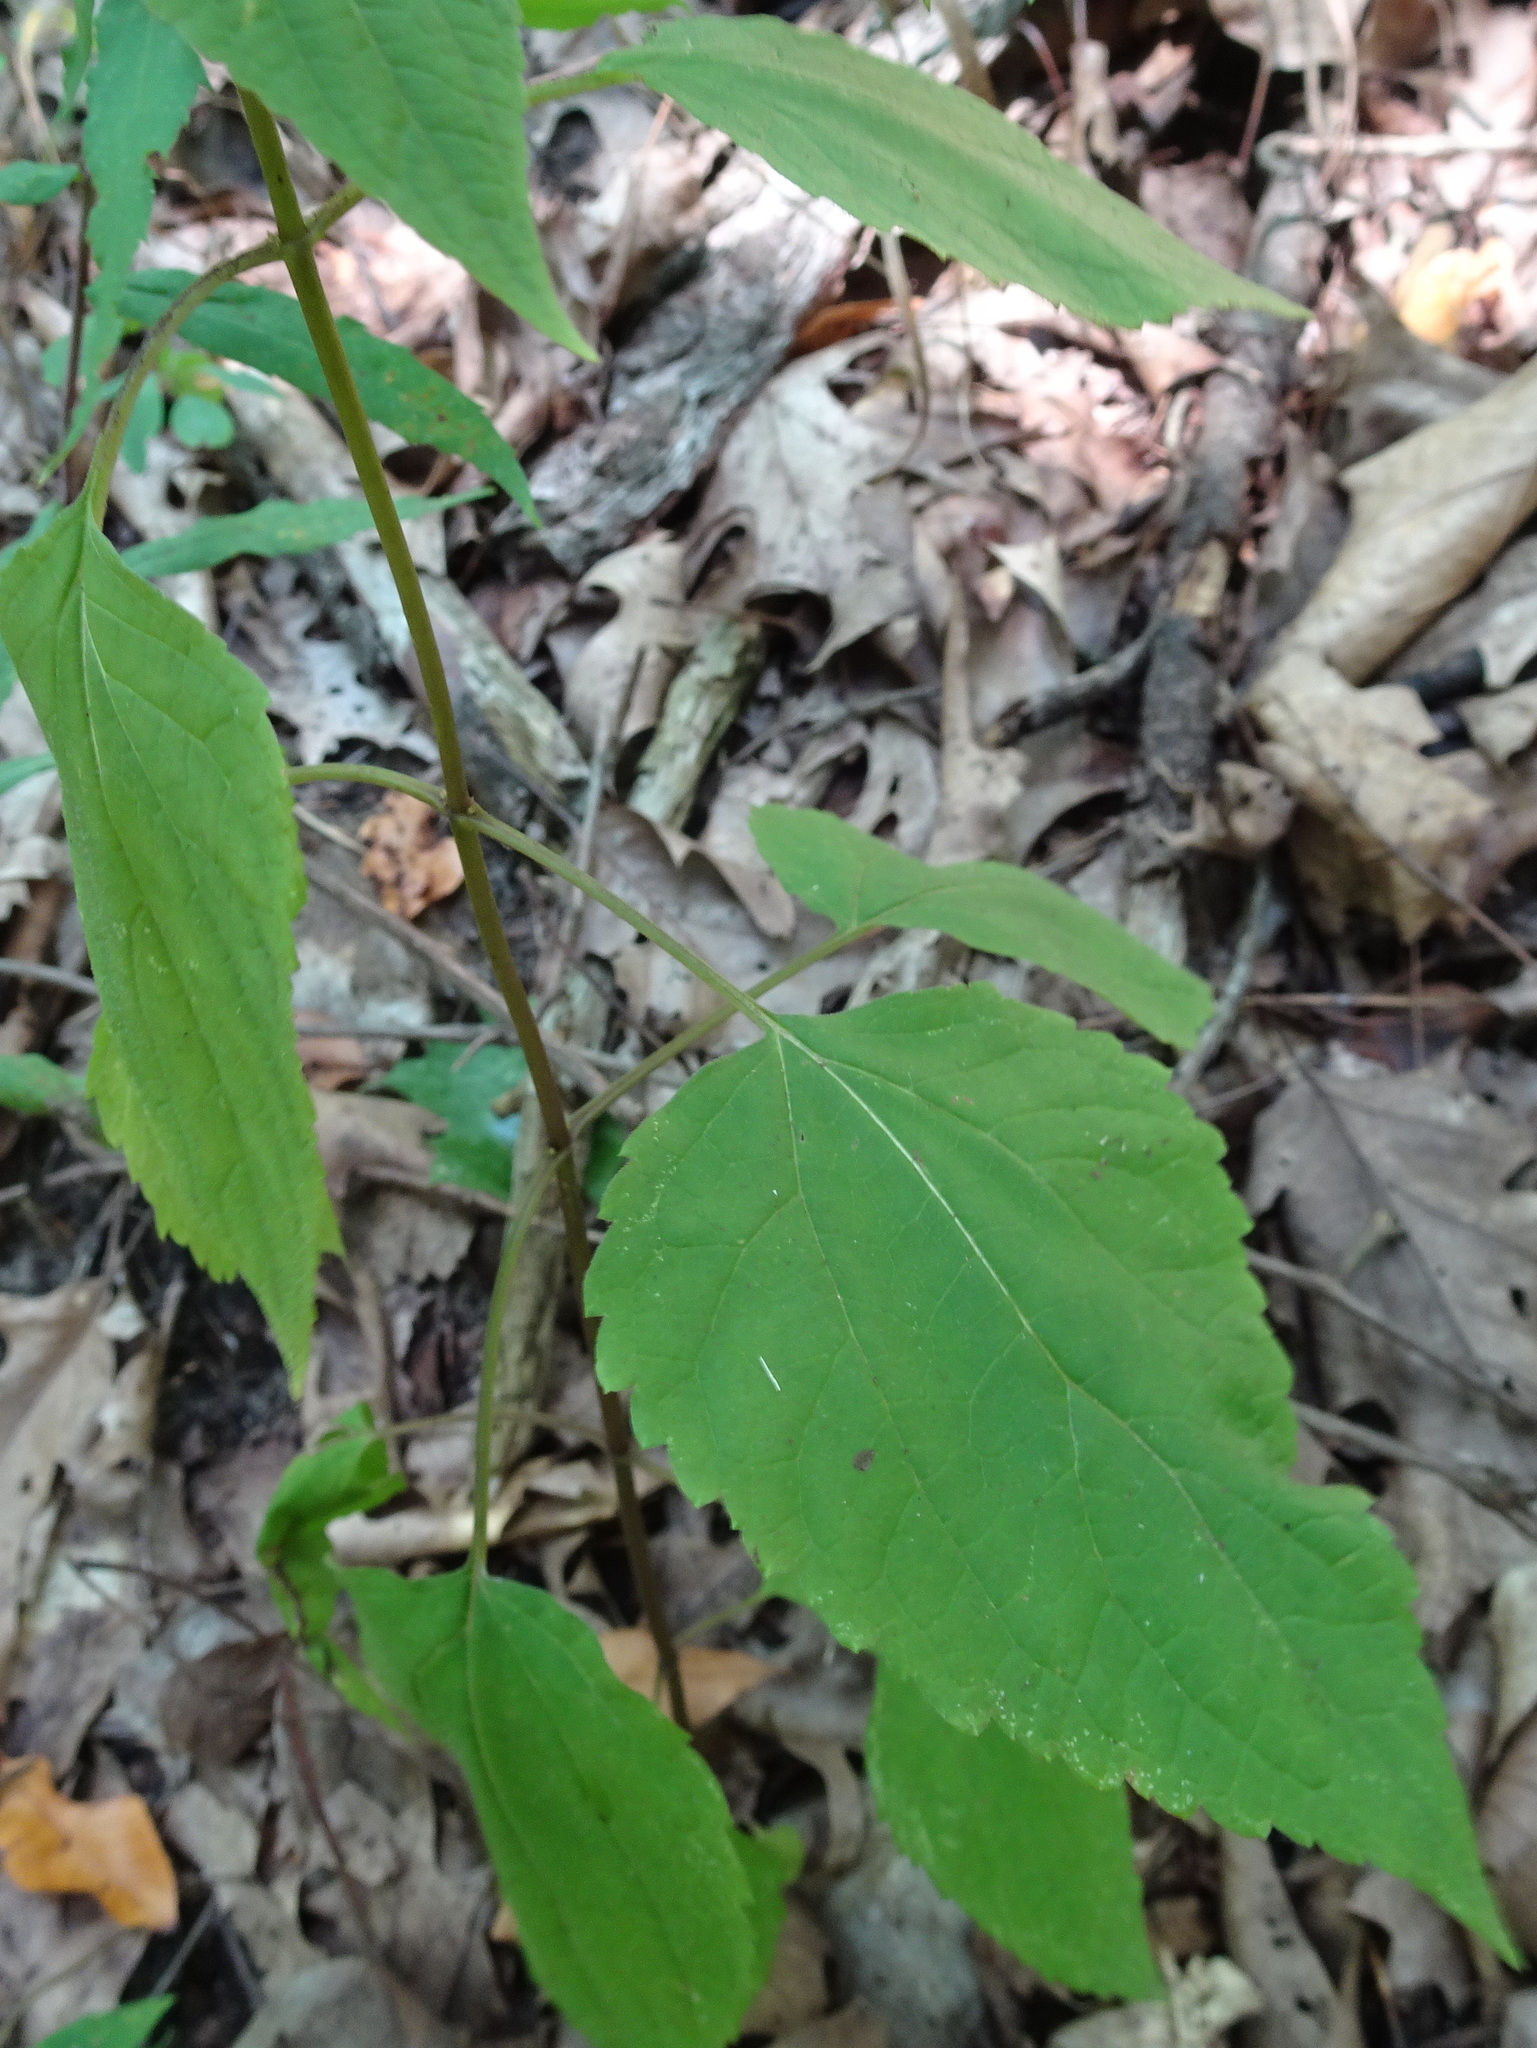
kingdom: Plantae
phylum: Tracheophyta
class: Magnoliopsida
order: Asterales
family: Asteraceae
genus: Ageratina
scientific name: Ageratina altissima
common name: White snakeroot
